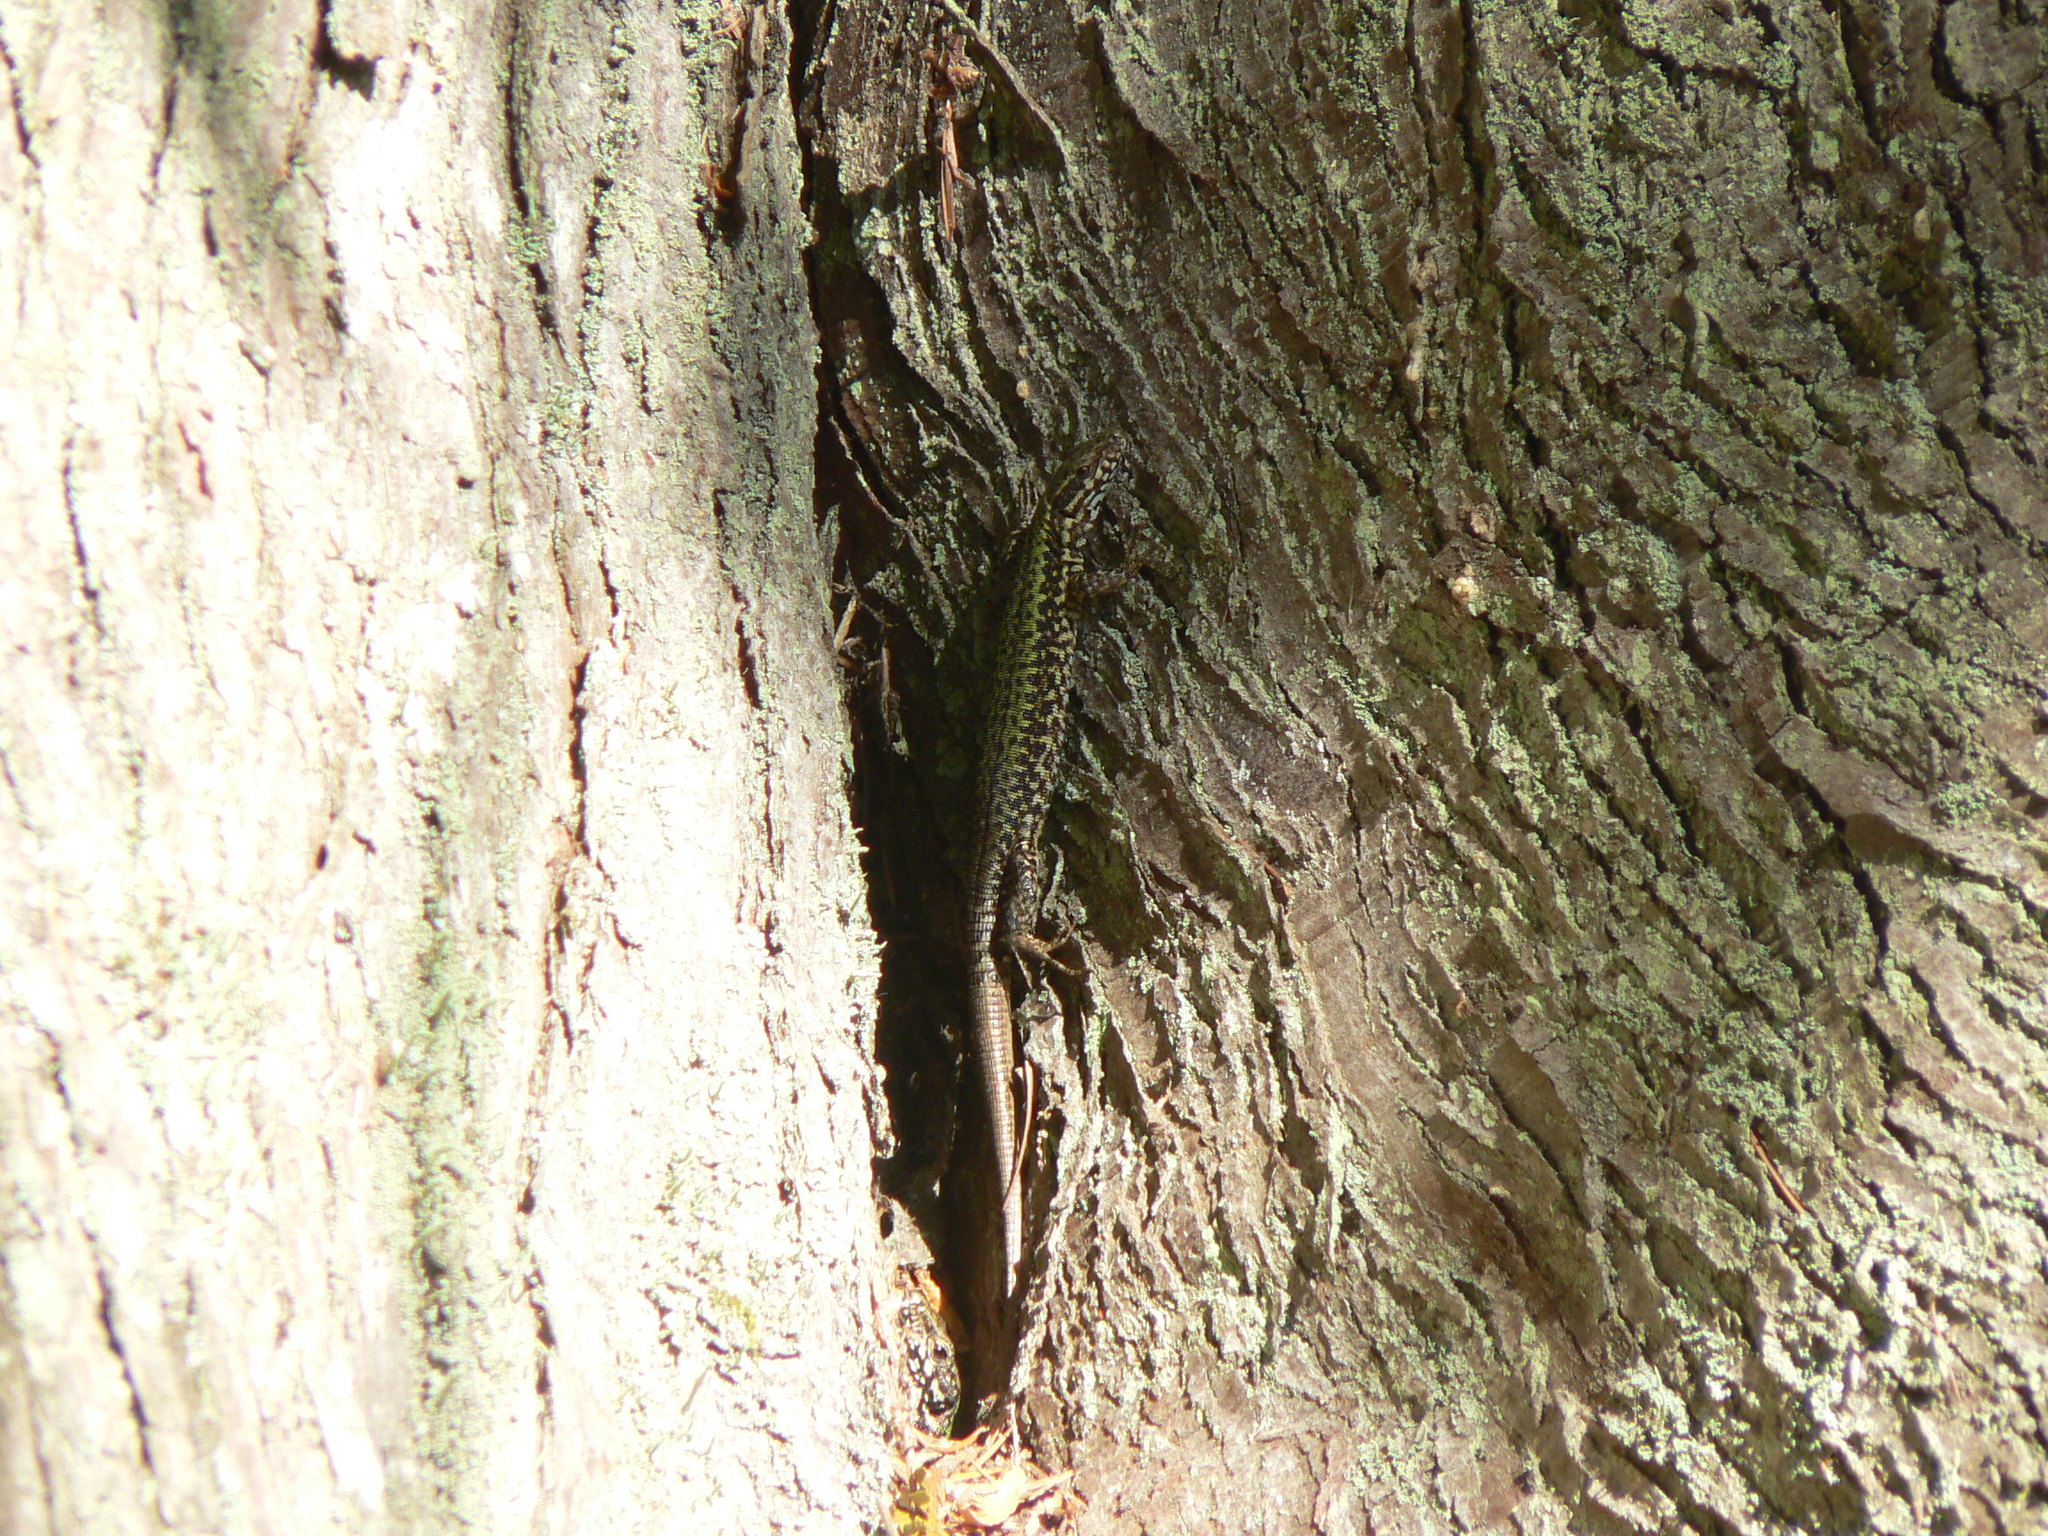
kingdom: Animalia
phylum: Chordata
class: Squamata
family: Lacertidae
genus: Podarcis
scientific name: Podarcis muralis
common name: Common wall lizard
